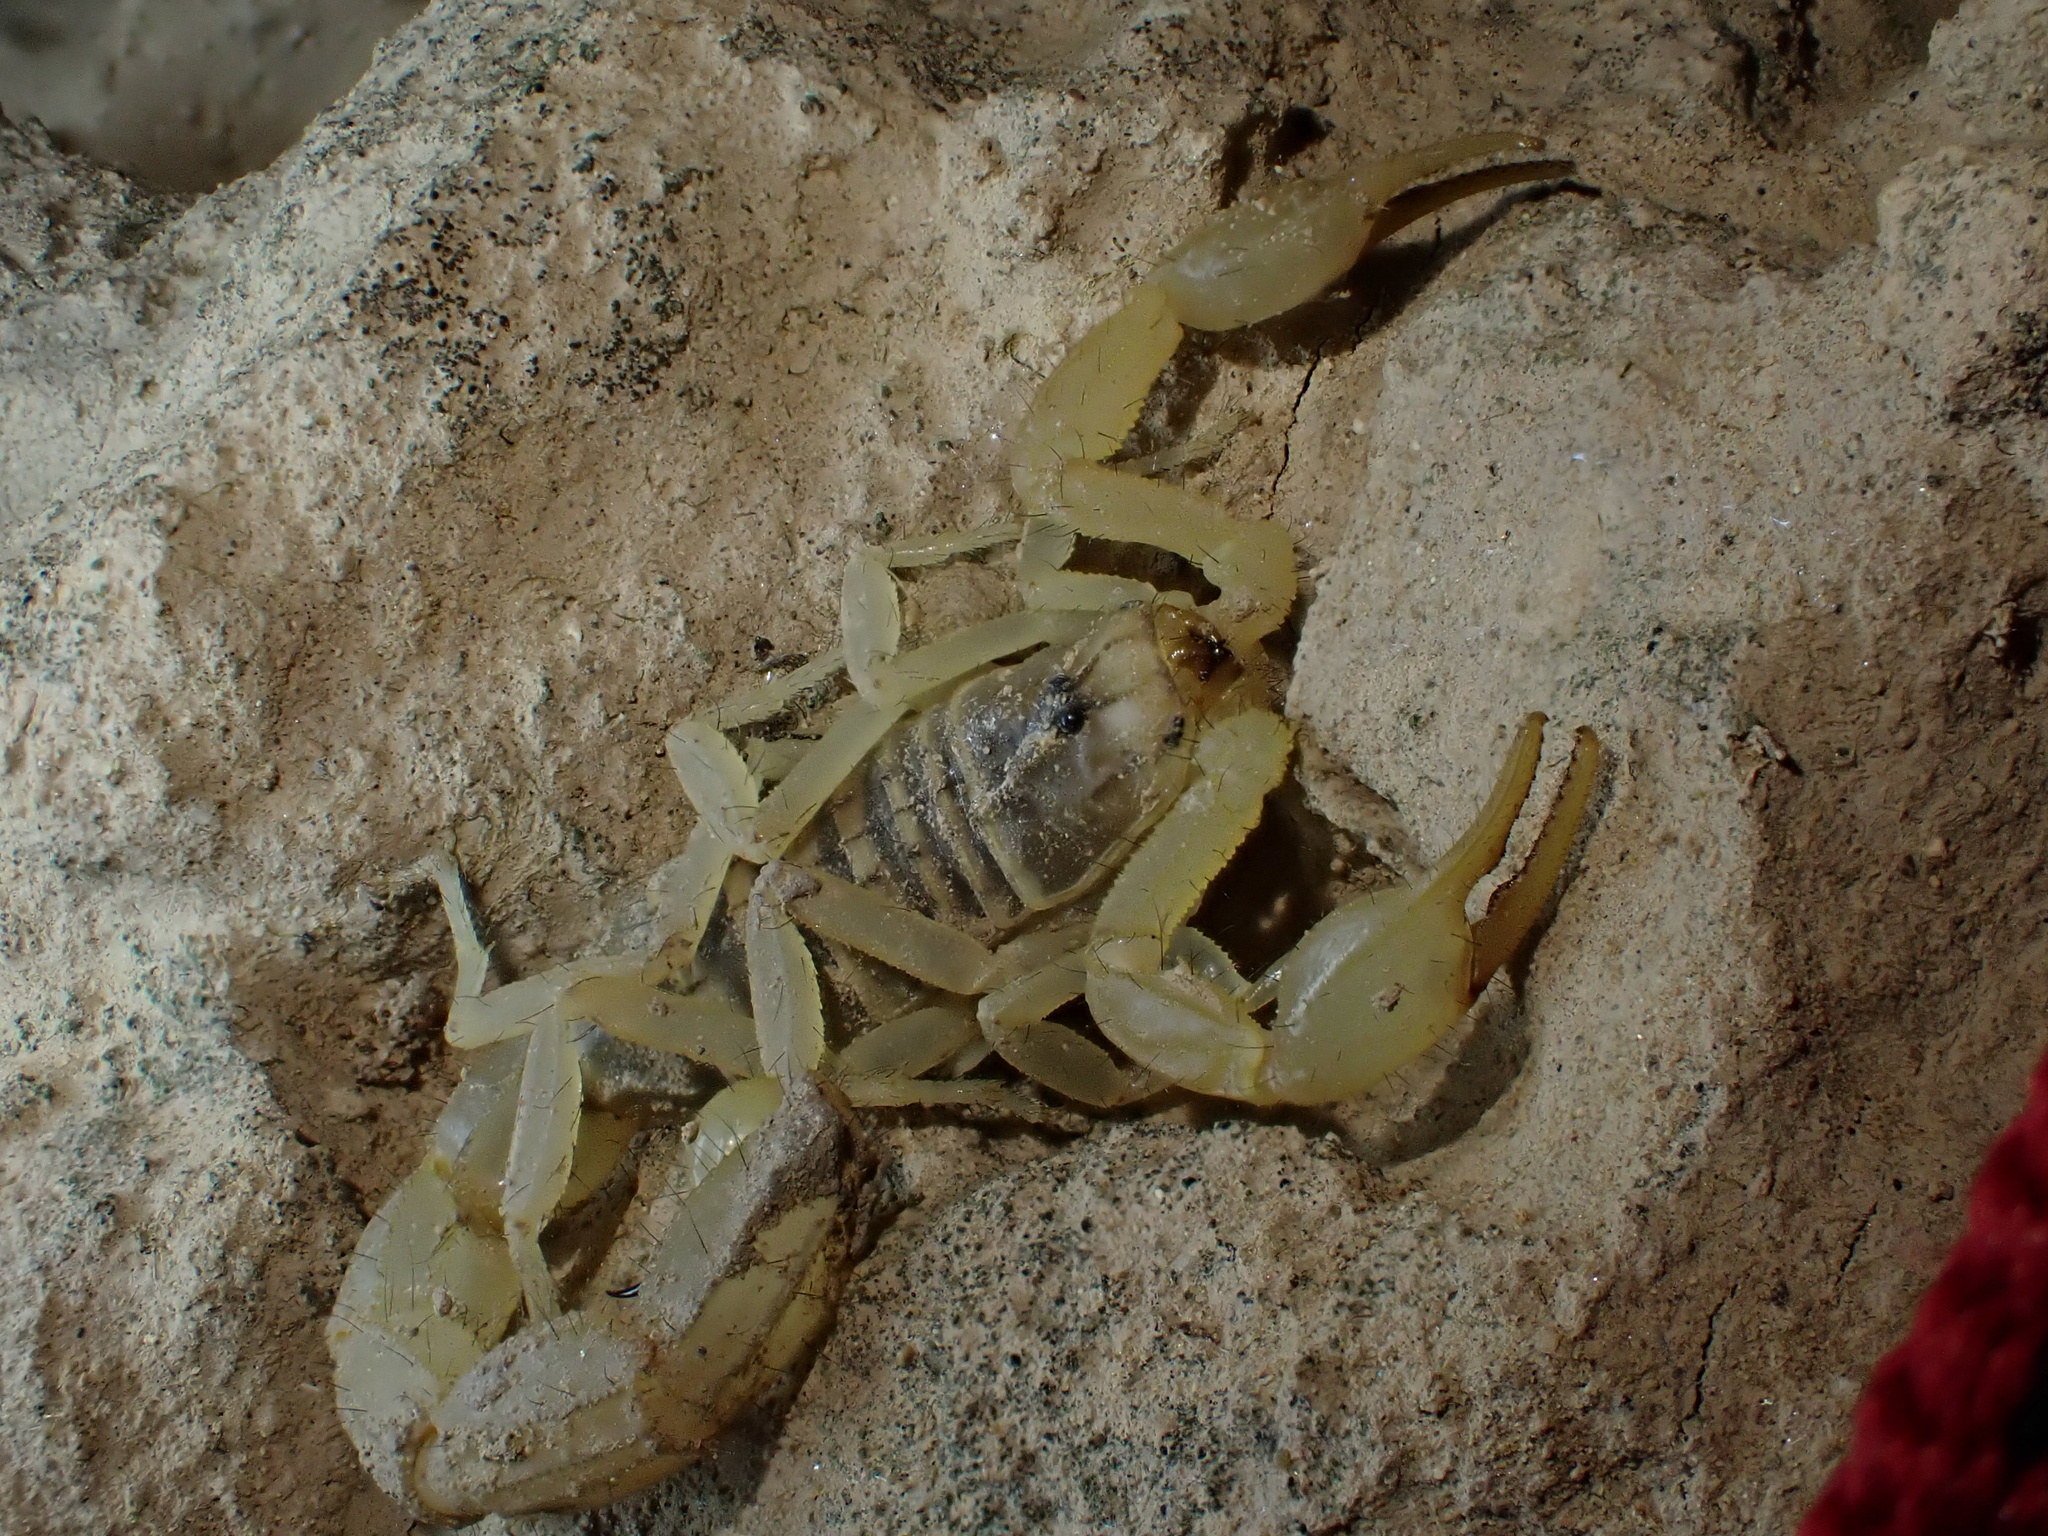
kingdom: Animalia
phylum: Arthropoda
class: Arachnida
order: Scorpiones
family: Buthidae
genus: Mesobuthus
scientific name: Mesobuthus crucittii
